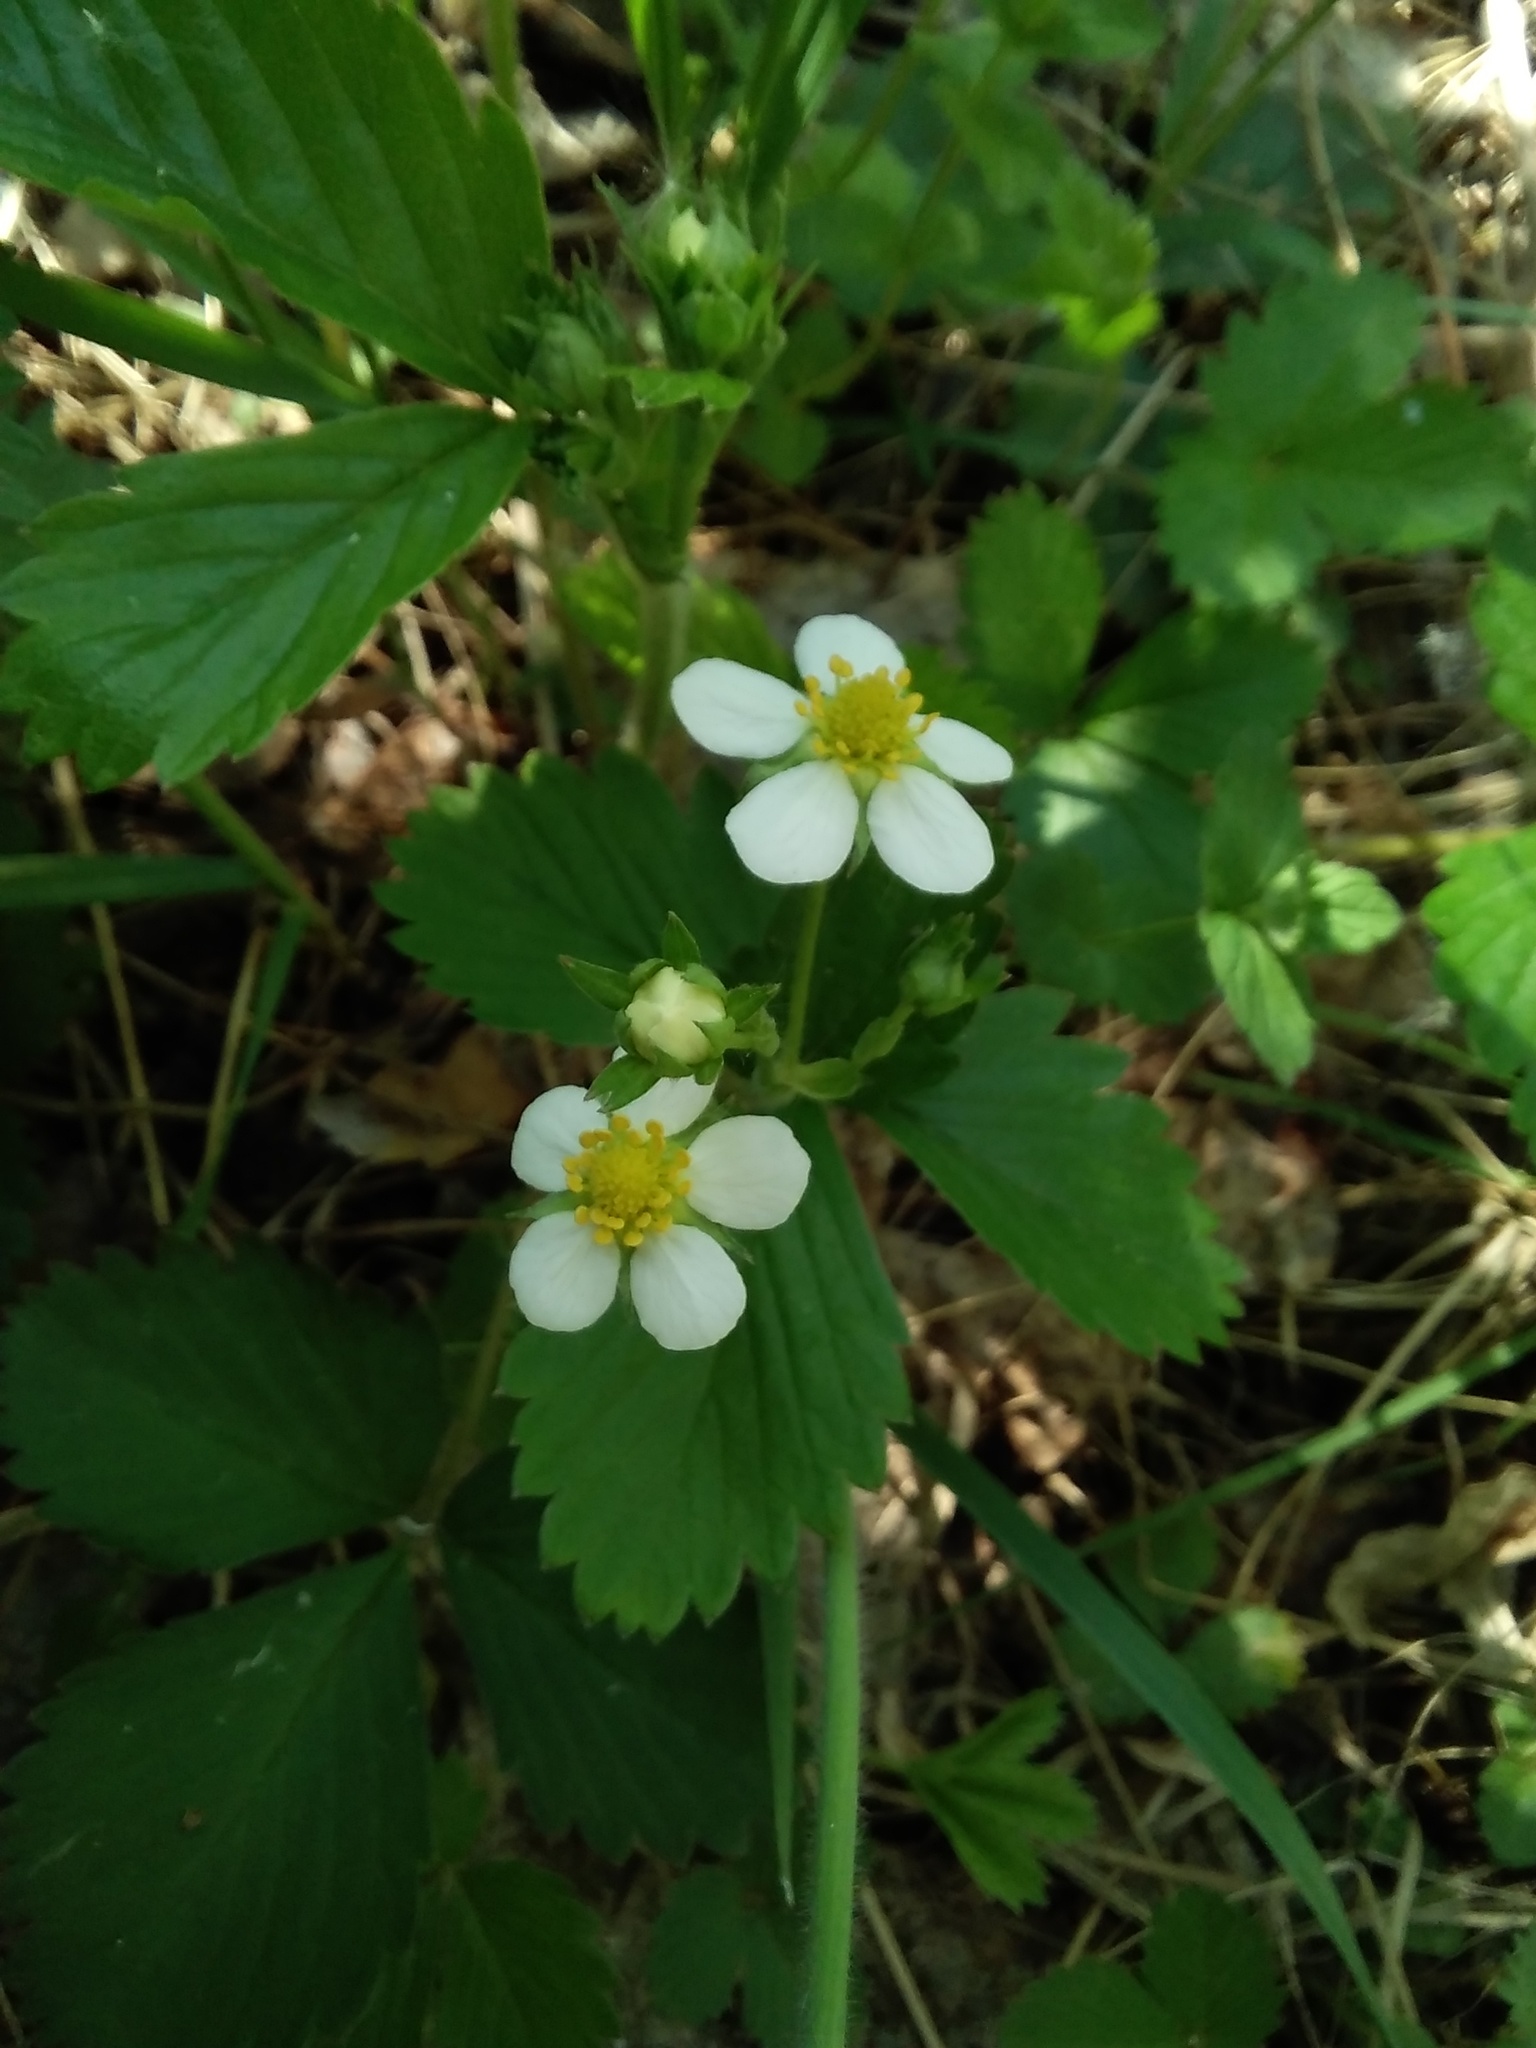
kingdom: Plantae
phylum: Tracheophyta
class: Magnoliopsida
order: Rosales
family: Rosaceae
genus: Fragaria
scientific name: Fragaria vesca
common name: Wild strawberry
